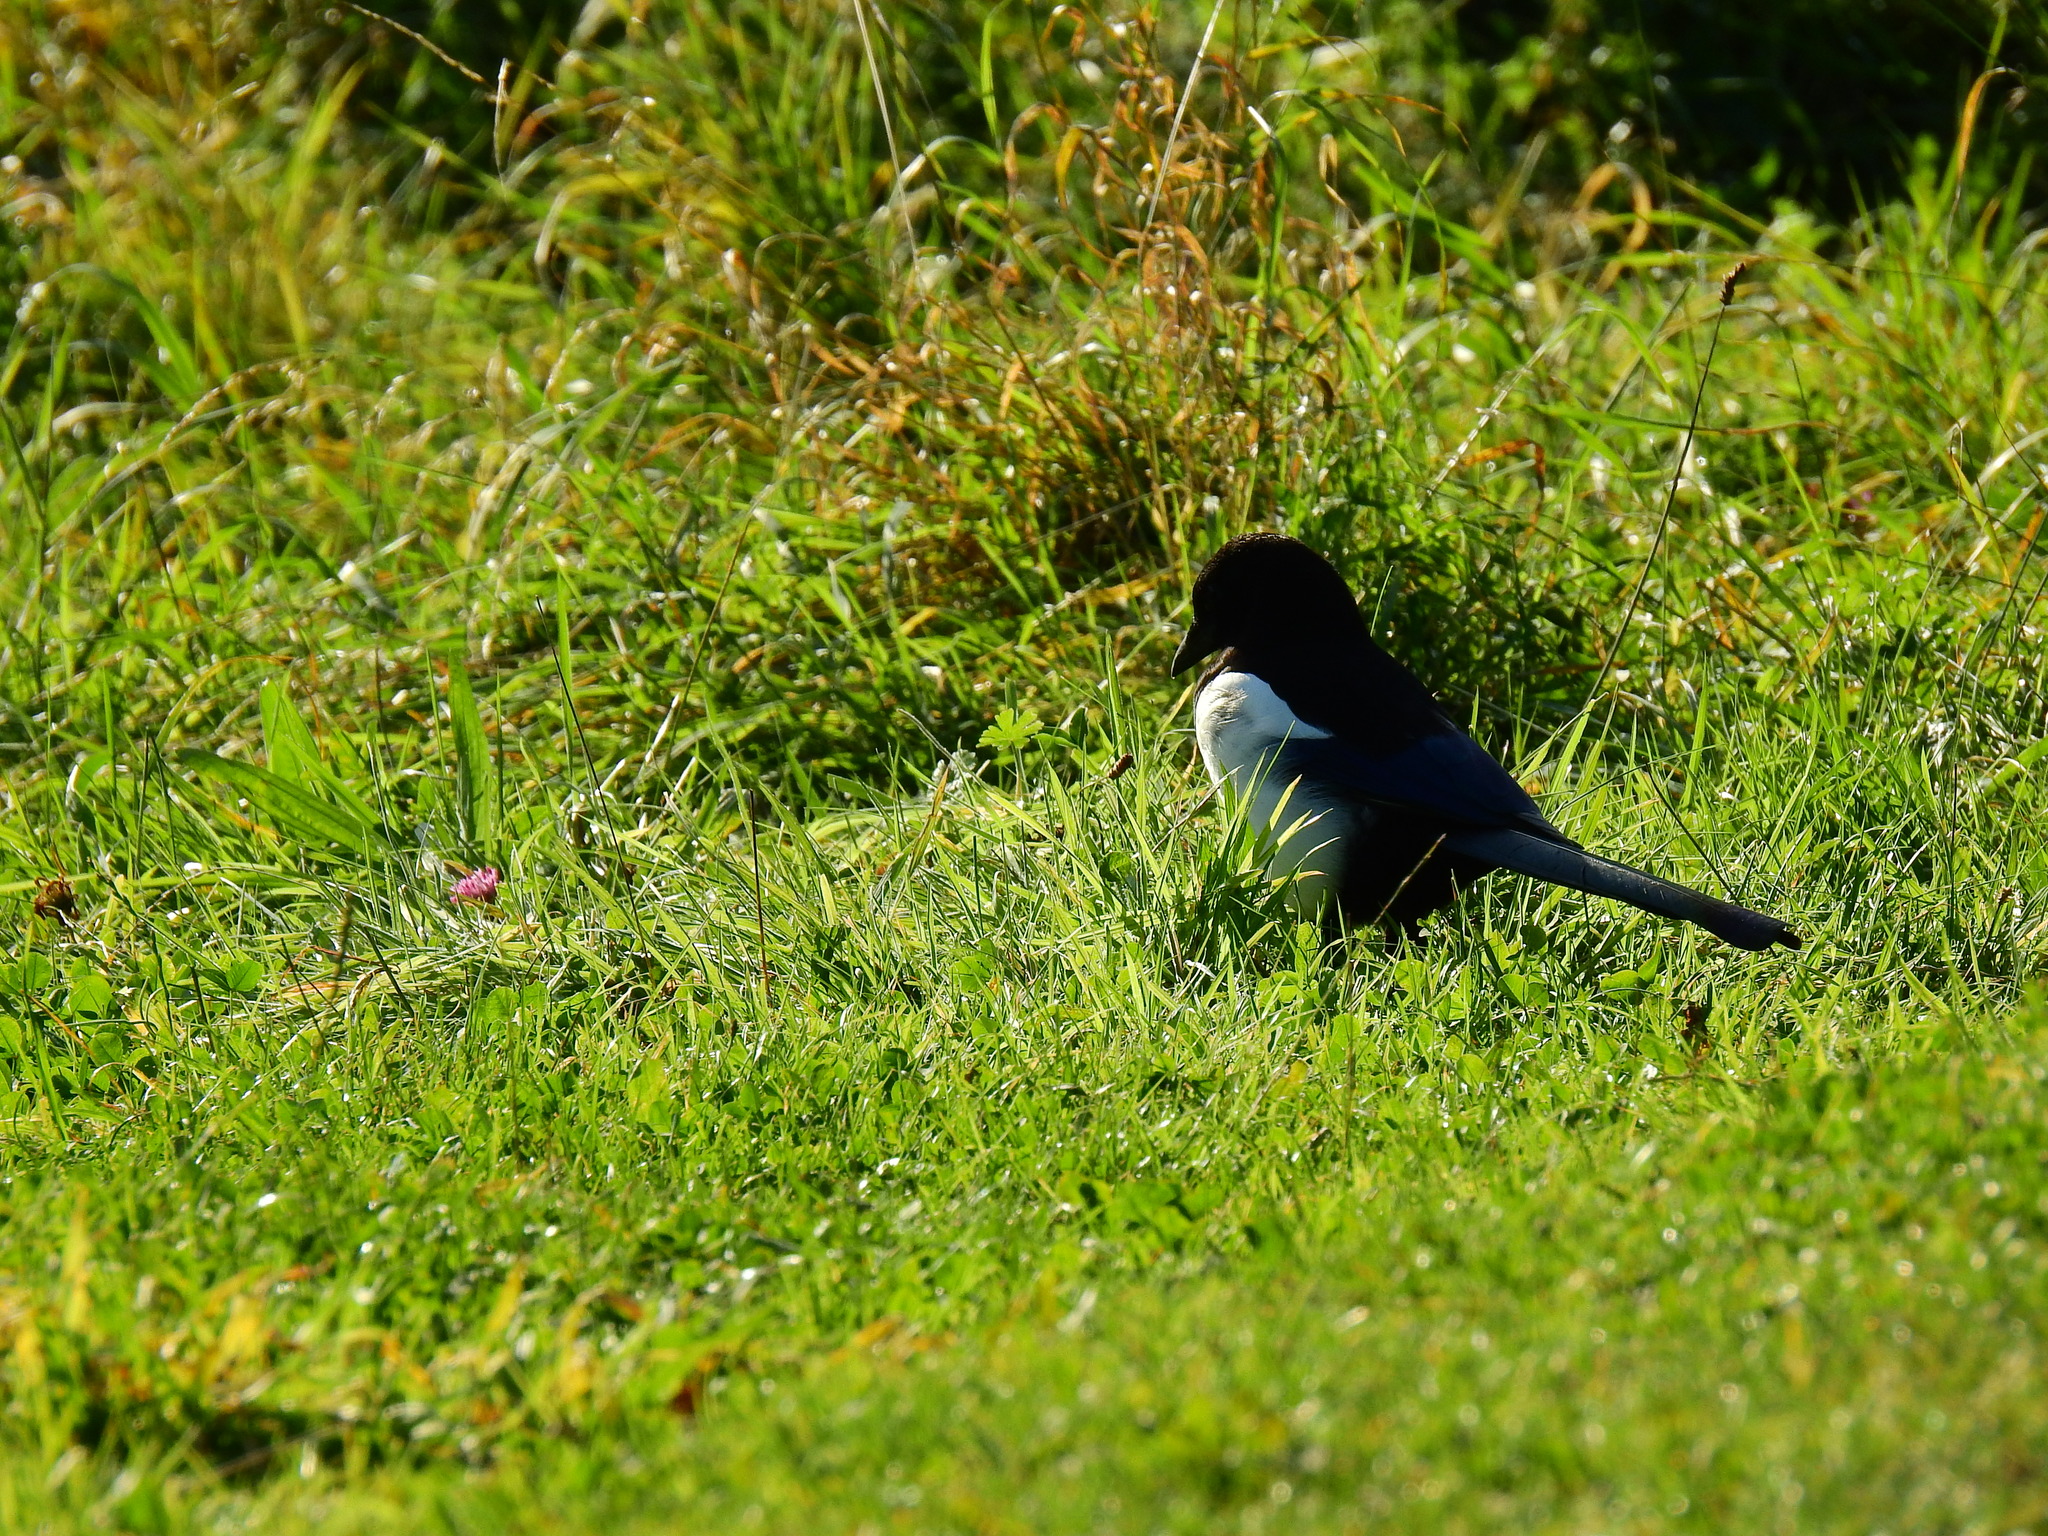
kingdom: Animalia
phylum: Chordata
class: Aves
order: Passeriformes
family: Corvidae
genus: Pica
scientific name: Pica pica
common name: Eurasian magpie
